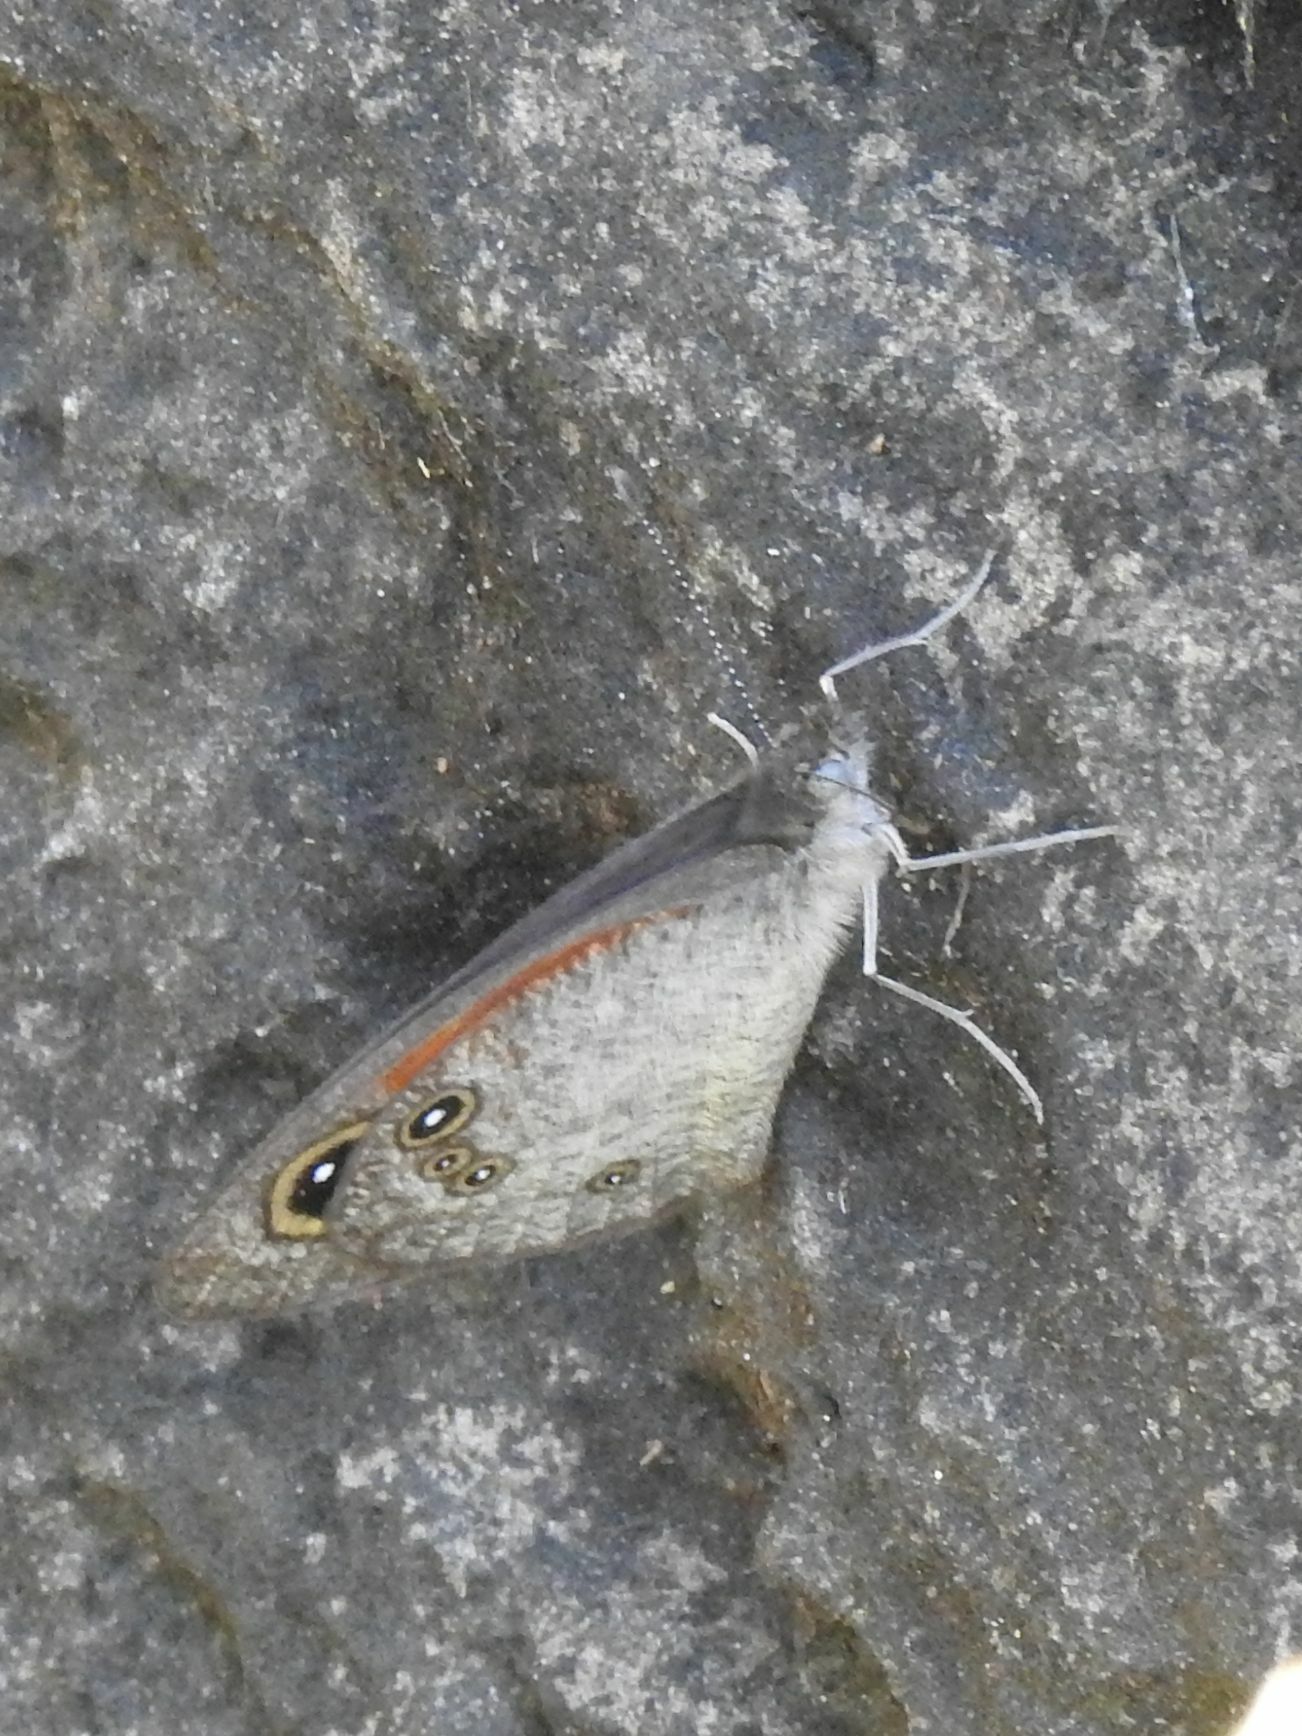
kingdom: Animalia
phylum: Arthropoda
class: Insecta
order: Lepidoptera
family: Nymphalidae
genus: Stygionympha
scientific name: Stygionympha wichgrafi
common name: Wichgraf’s hillside brown
